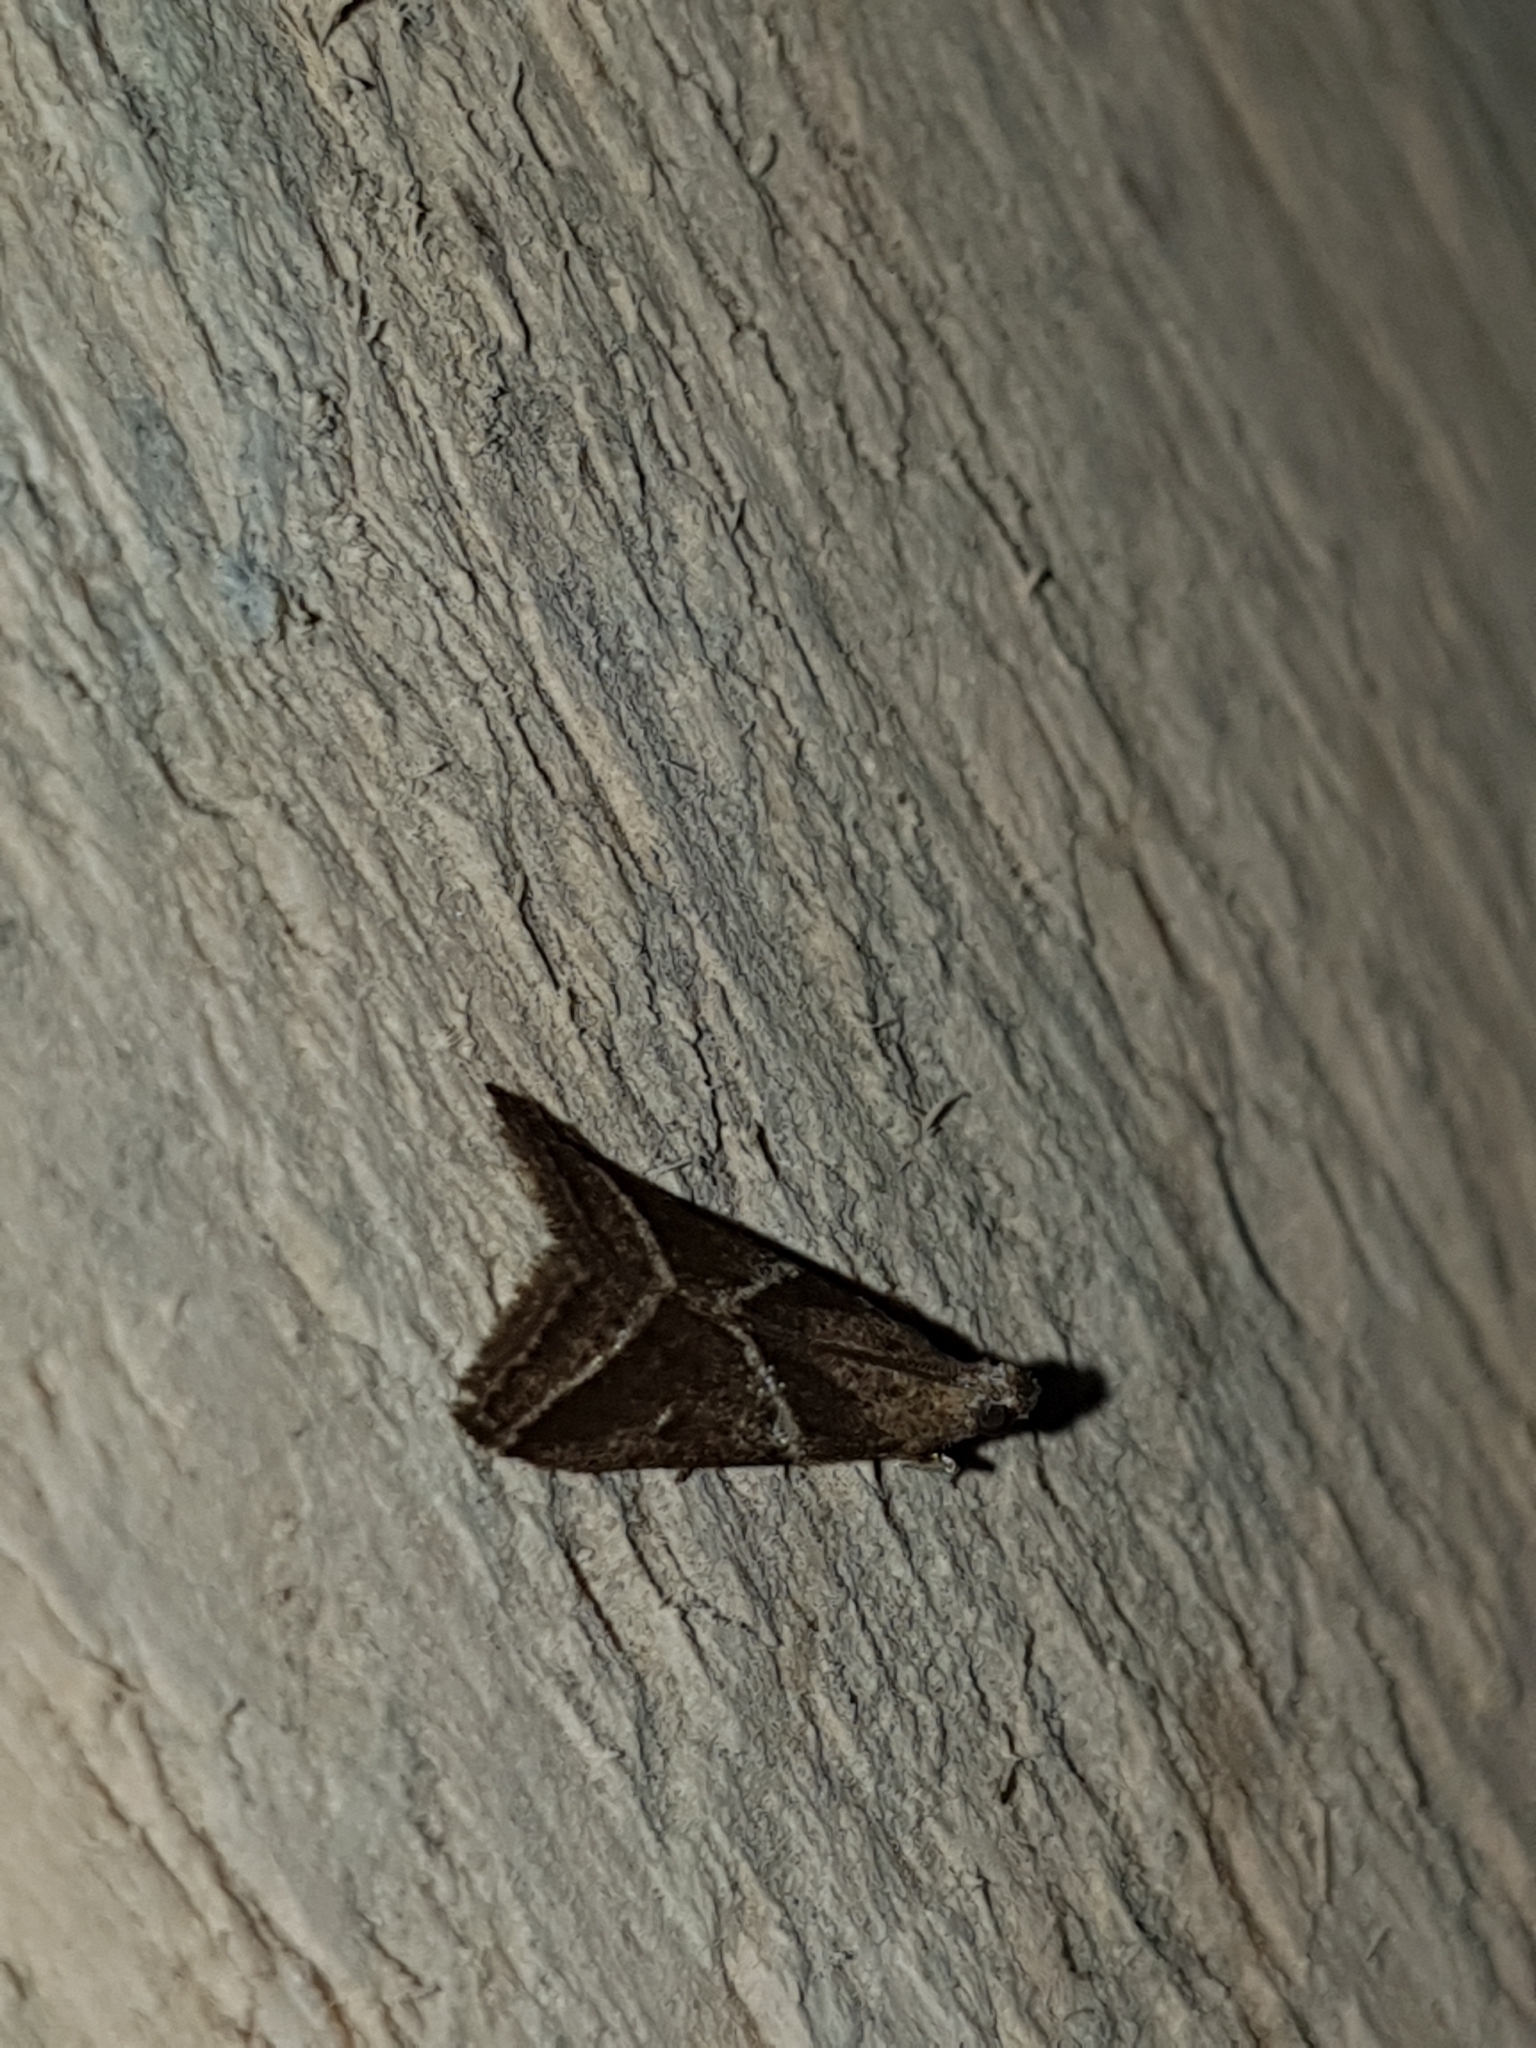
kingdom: Animalia
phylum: Arthropoda
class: Insecta
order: Lepidoptera
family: Pyralidae
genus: Nyctegretis
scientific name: Nyctegretis triangulella
